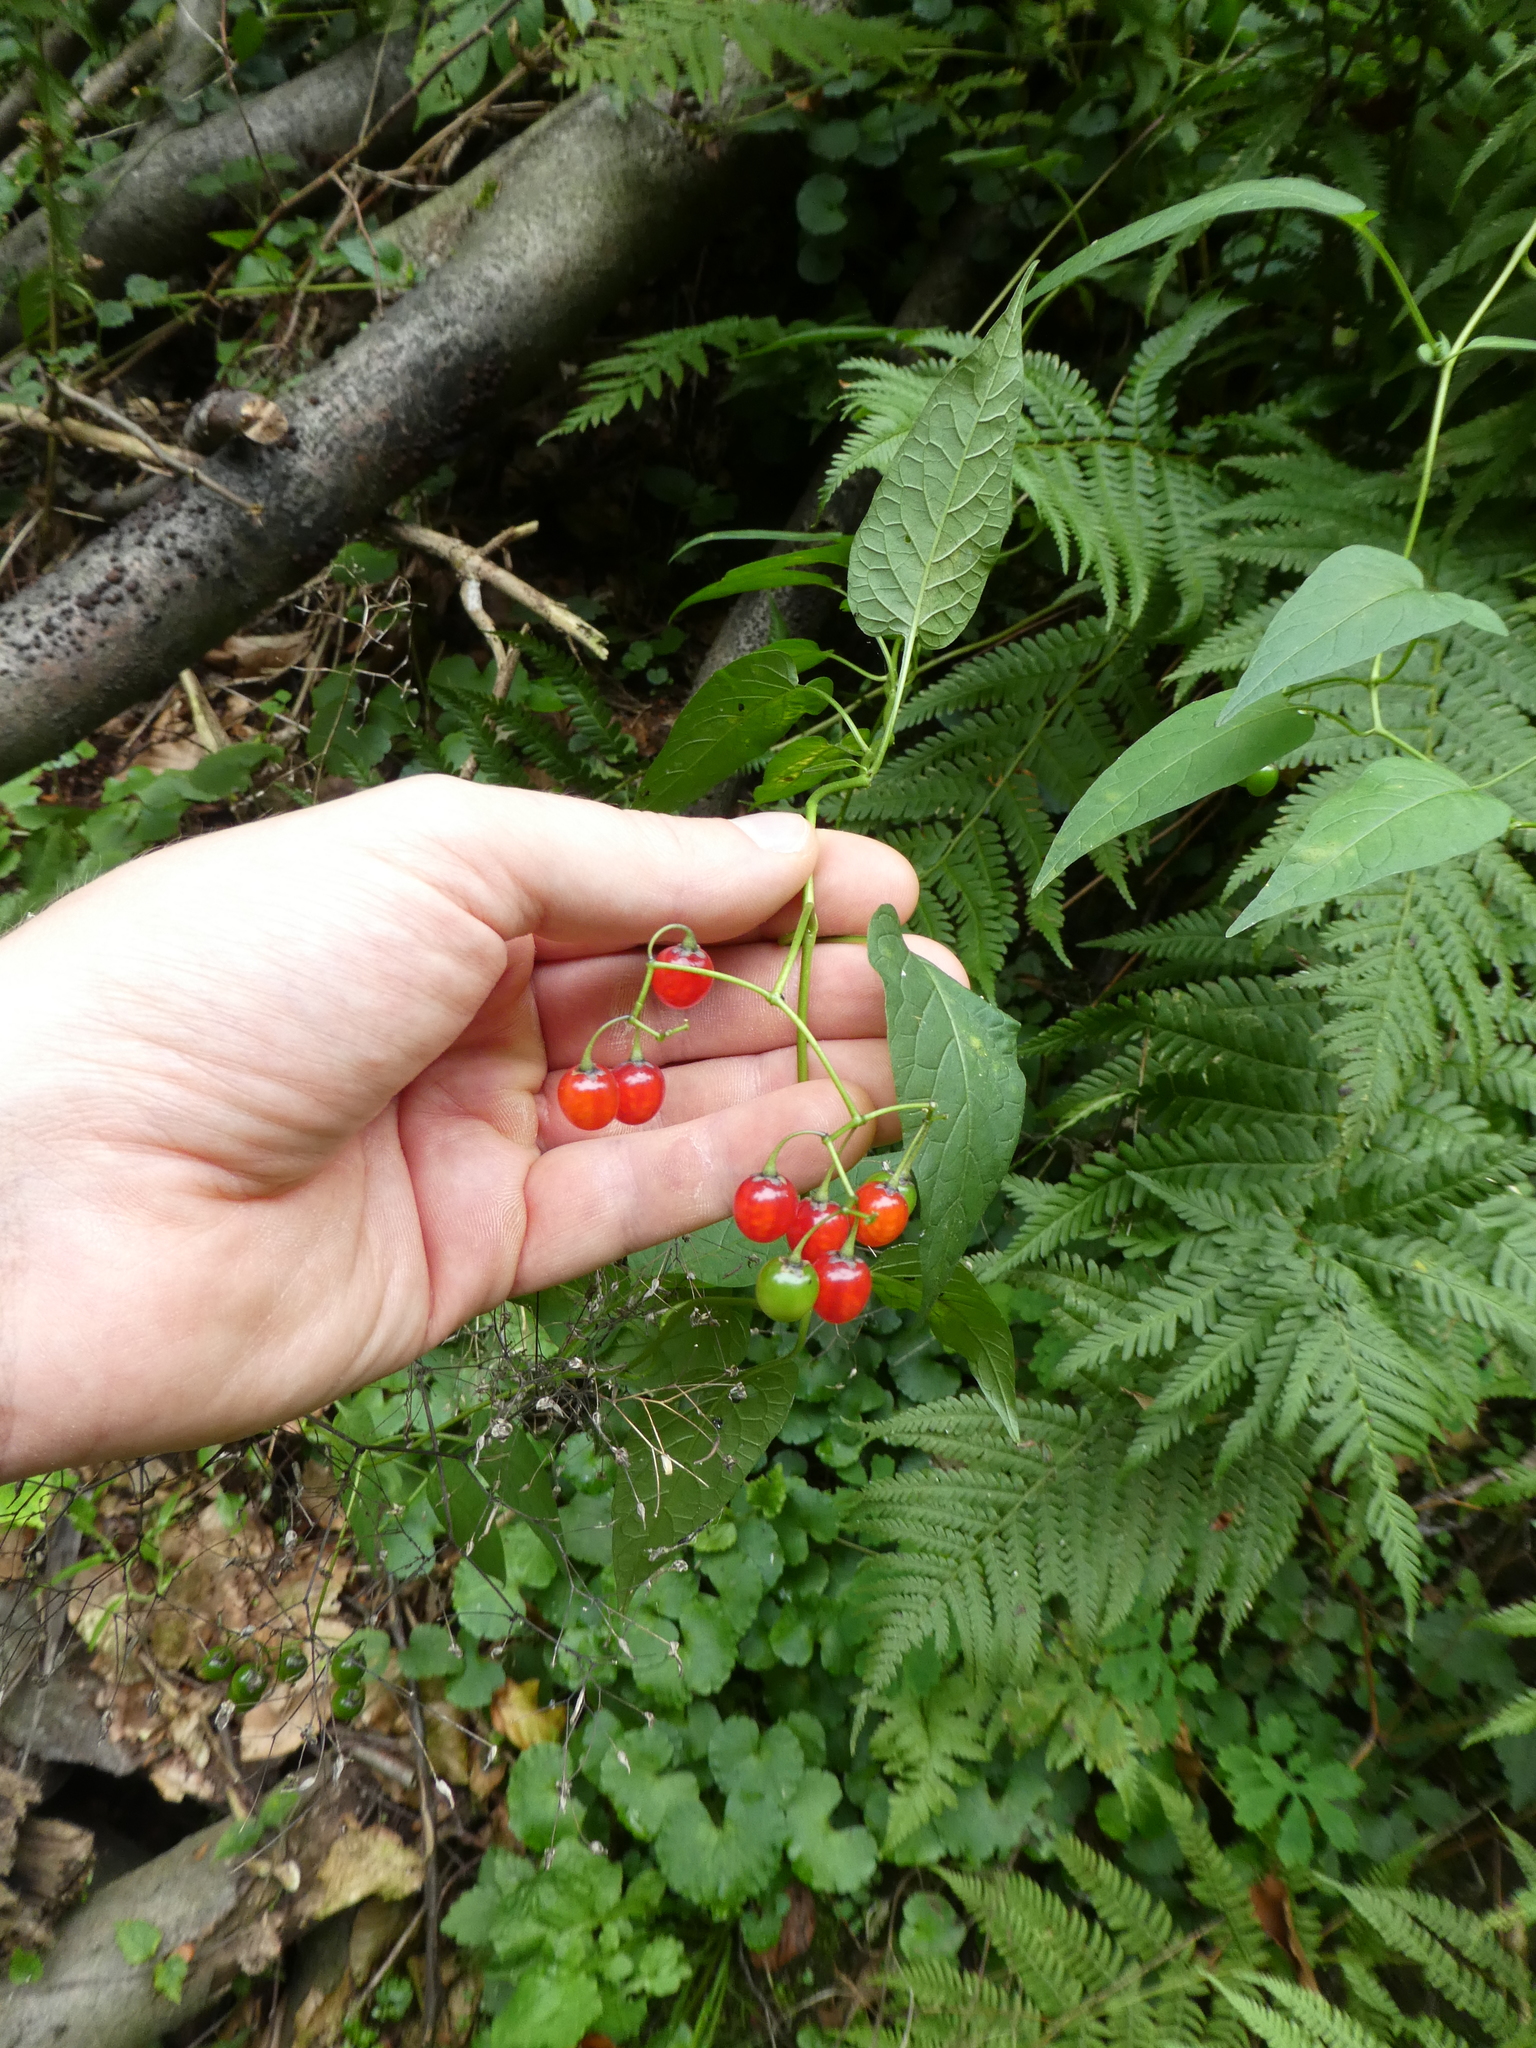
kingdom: Plantae
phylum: Tracheophyta
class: Magnoliopsida
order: Solanales
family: Solanaceae
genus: Solanum
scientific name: Solanum dulcamara
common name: Climbing nightshade
